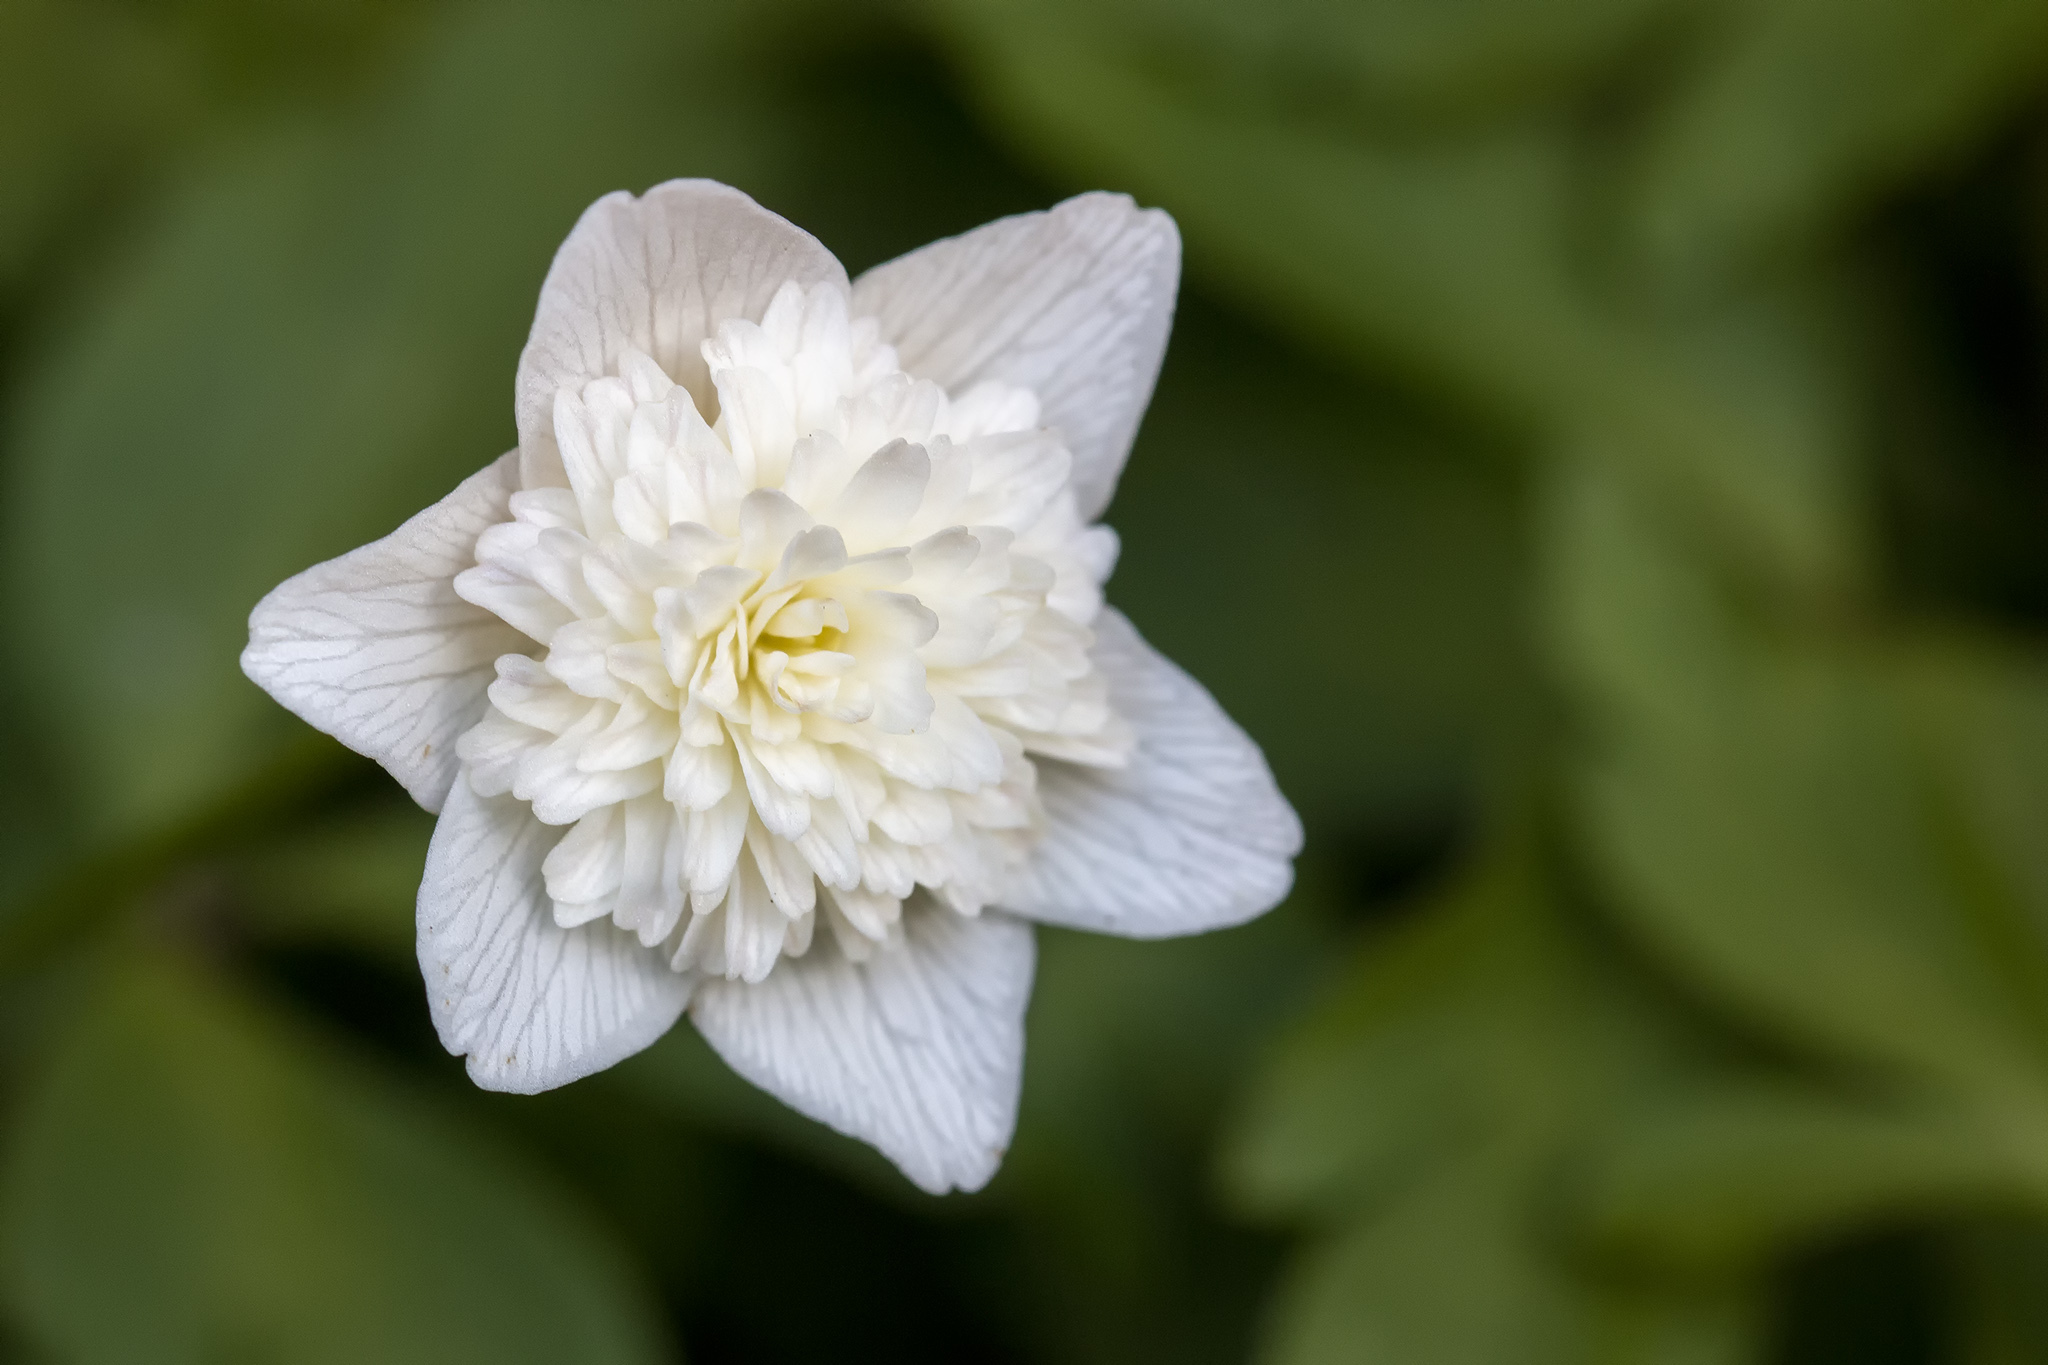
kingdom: Plantae
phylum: Tracheophyta
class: Magnoliopsida
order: Ranunculales
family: Ranunculaceae
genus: Anemone
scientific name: Anemone nemorosa
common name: Wood anemone
